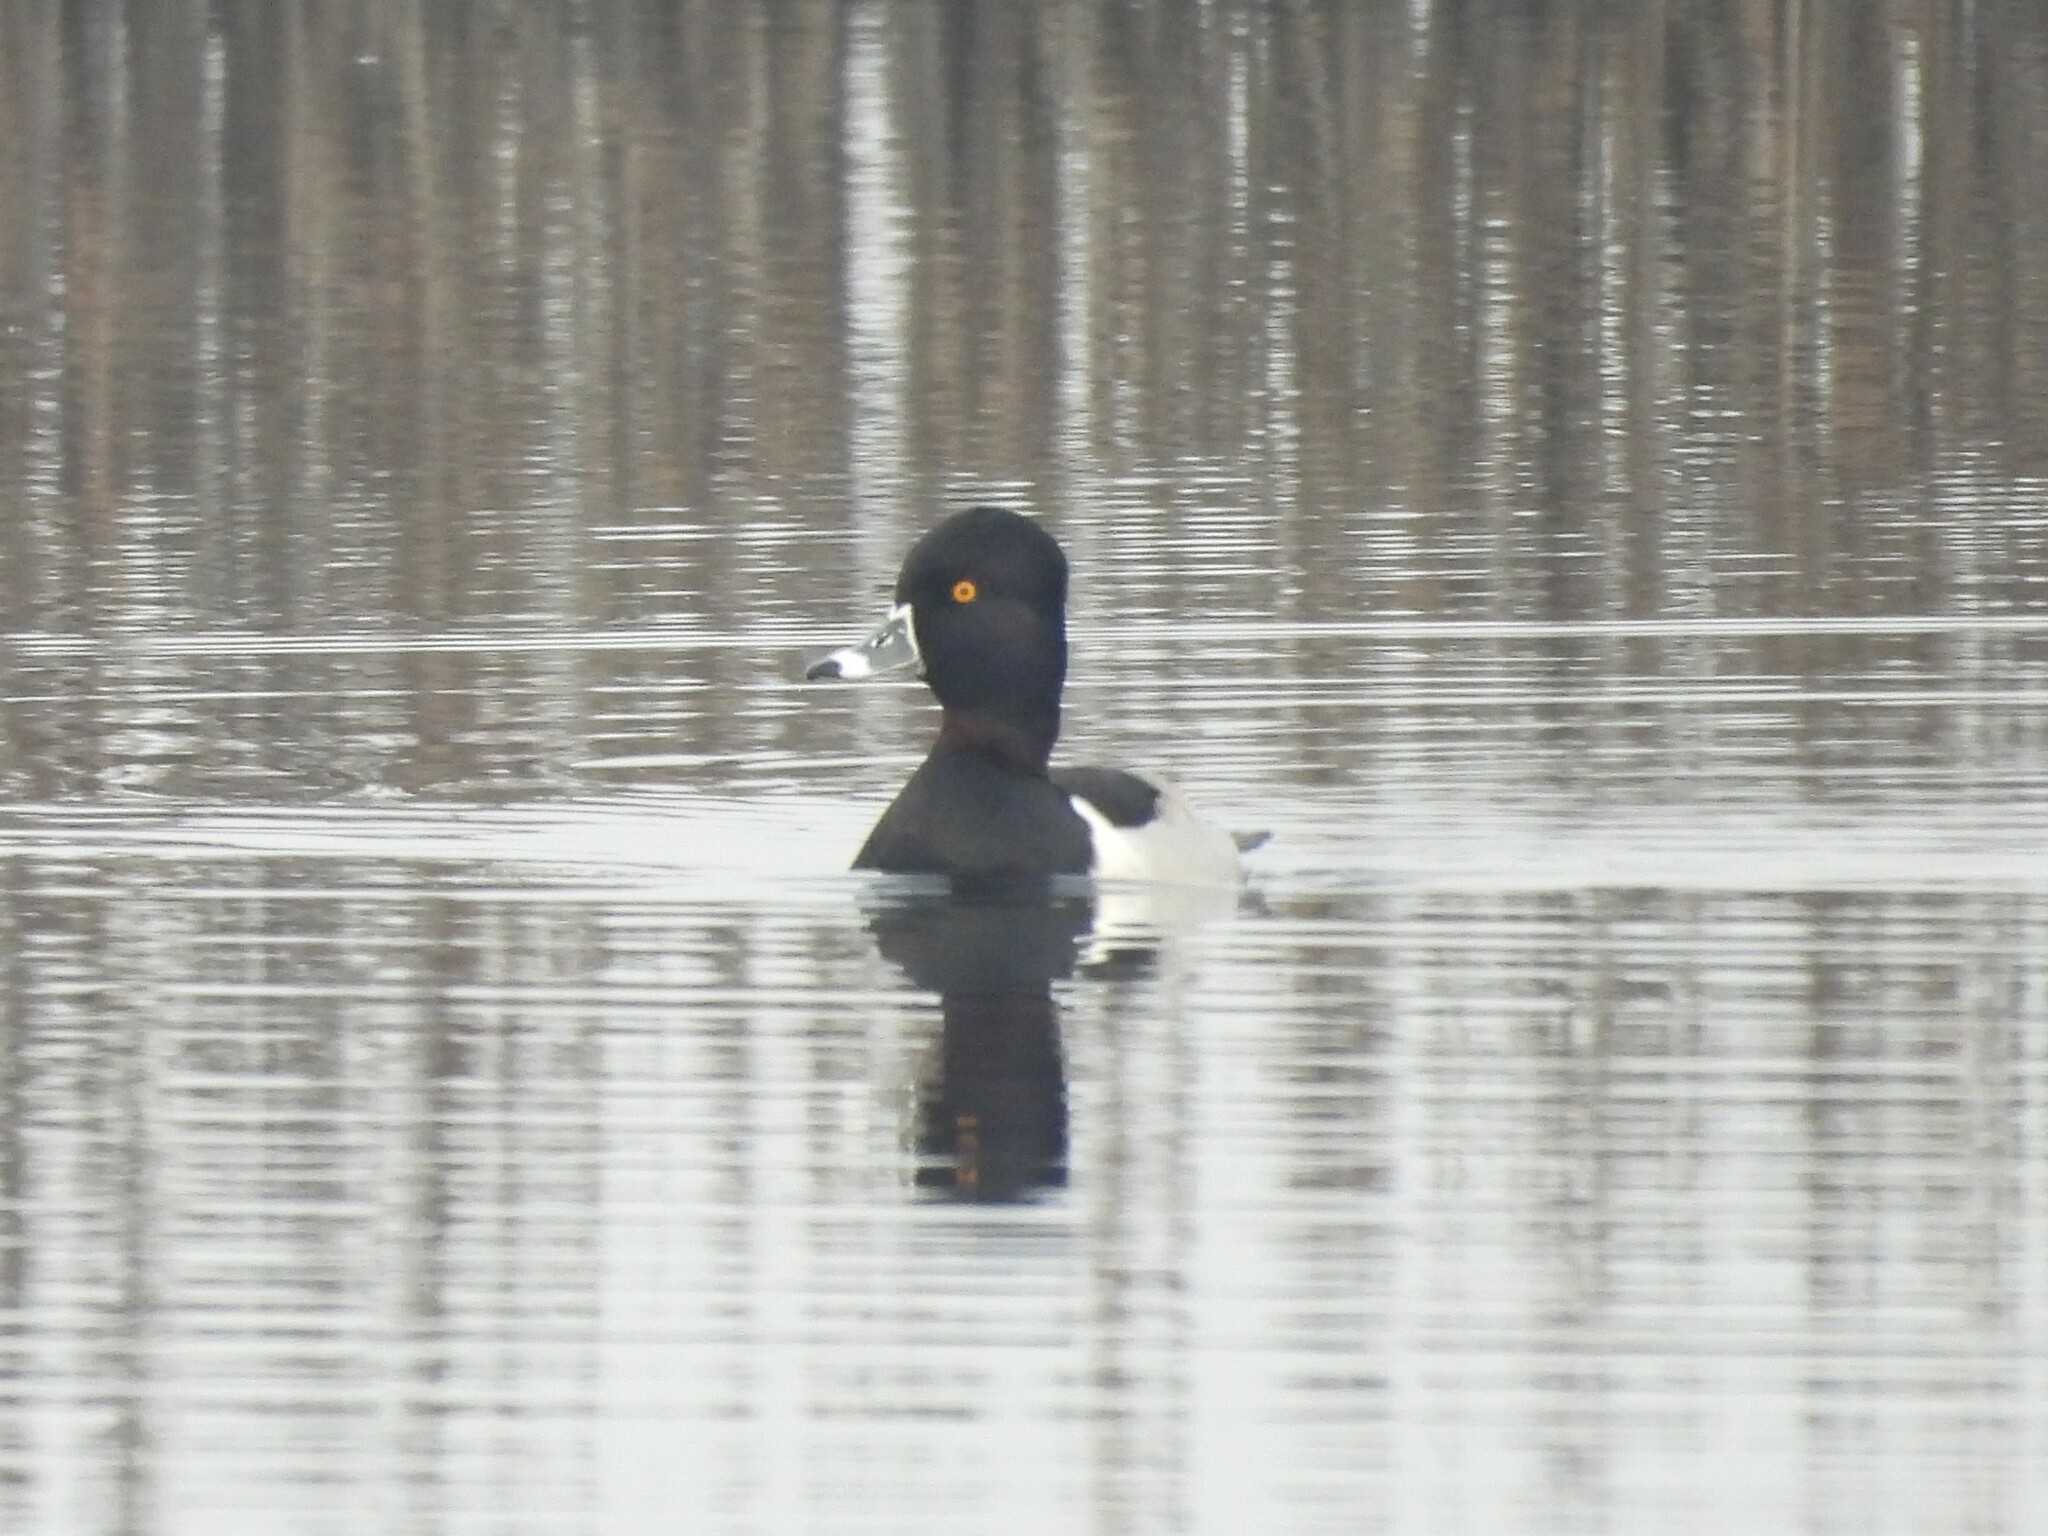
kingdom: Animalia
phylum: Chordata
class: Aves
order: Anseriformes
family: Anatidae
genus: Aythya
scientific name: Aythya collaris
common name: Ring-necked duck
